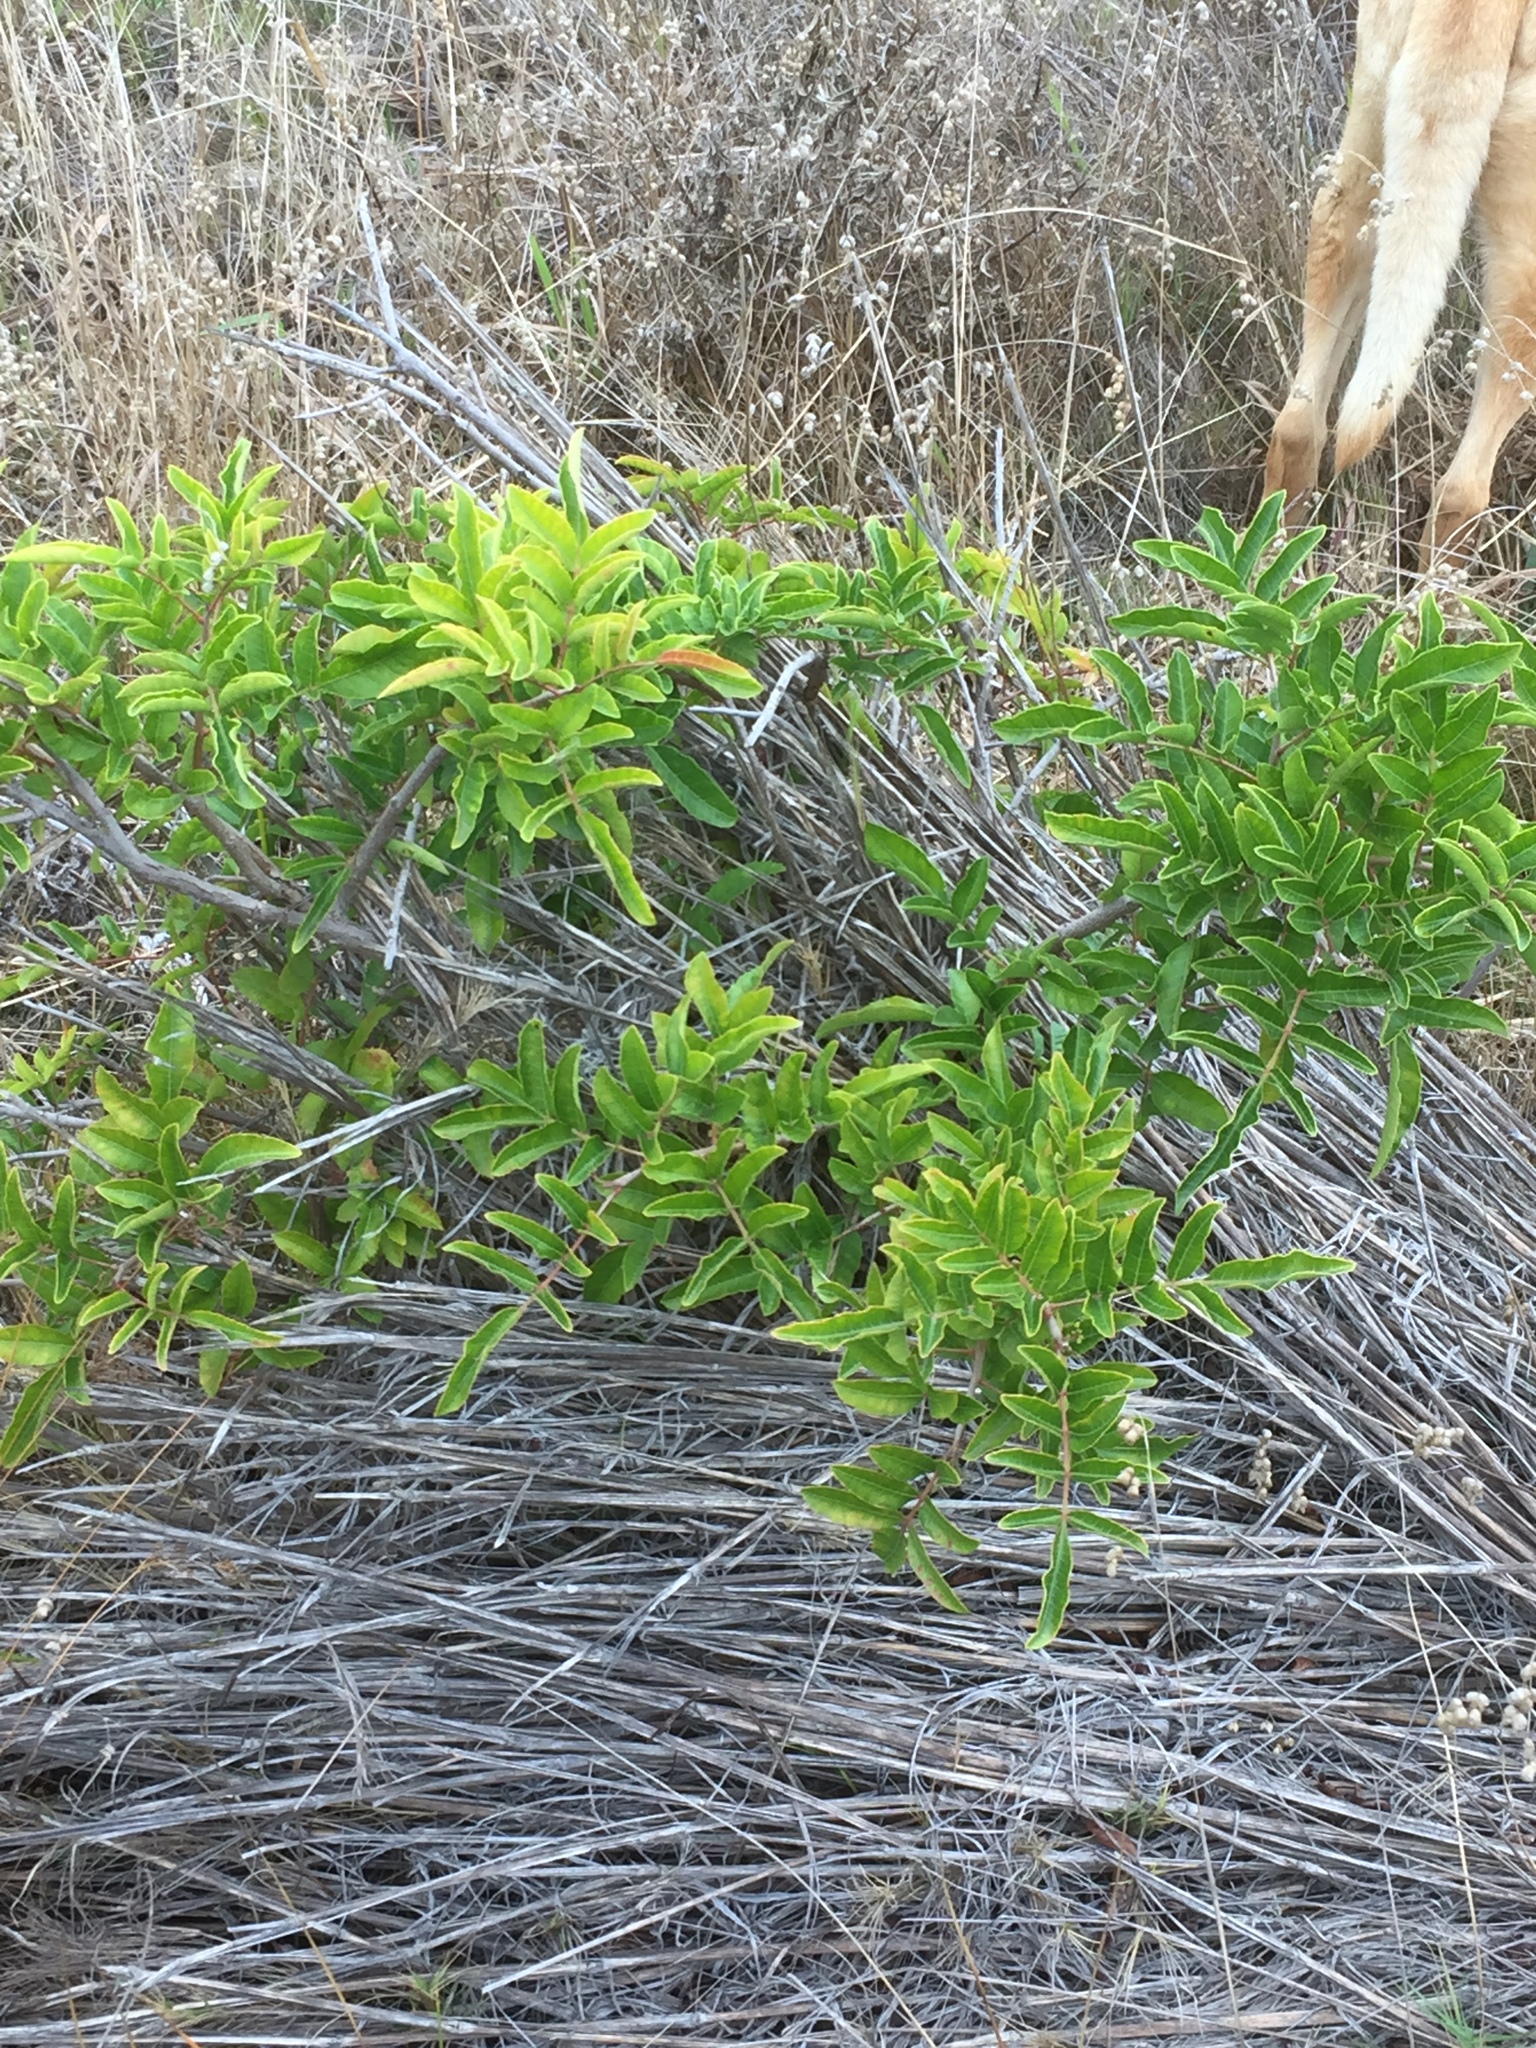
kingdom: Plantae
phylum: Tracheophyta
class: Magnoliopsida
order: Sapindales
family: Anacardiaceae
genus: Schinus
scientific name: Schinus terebinthifolia
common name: Brazilian peppertree
